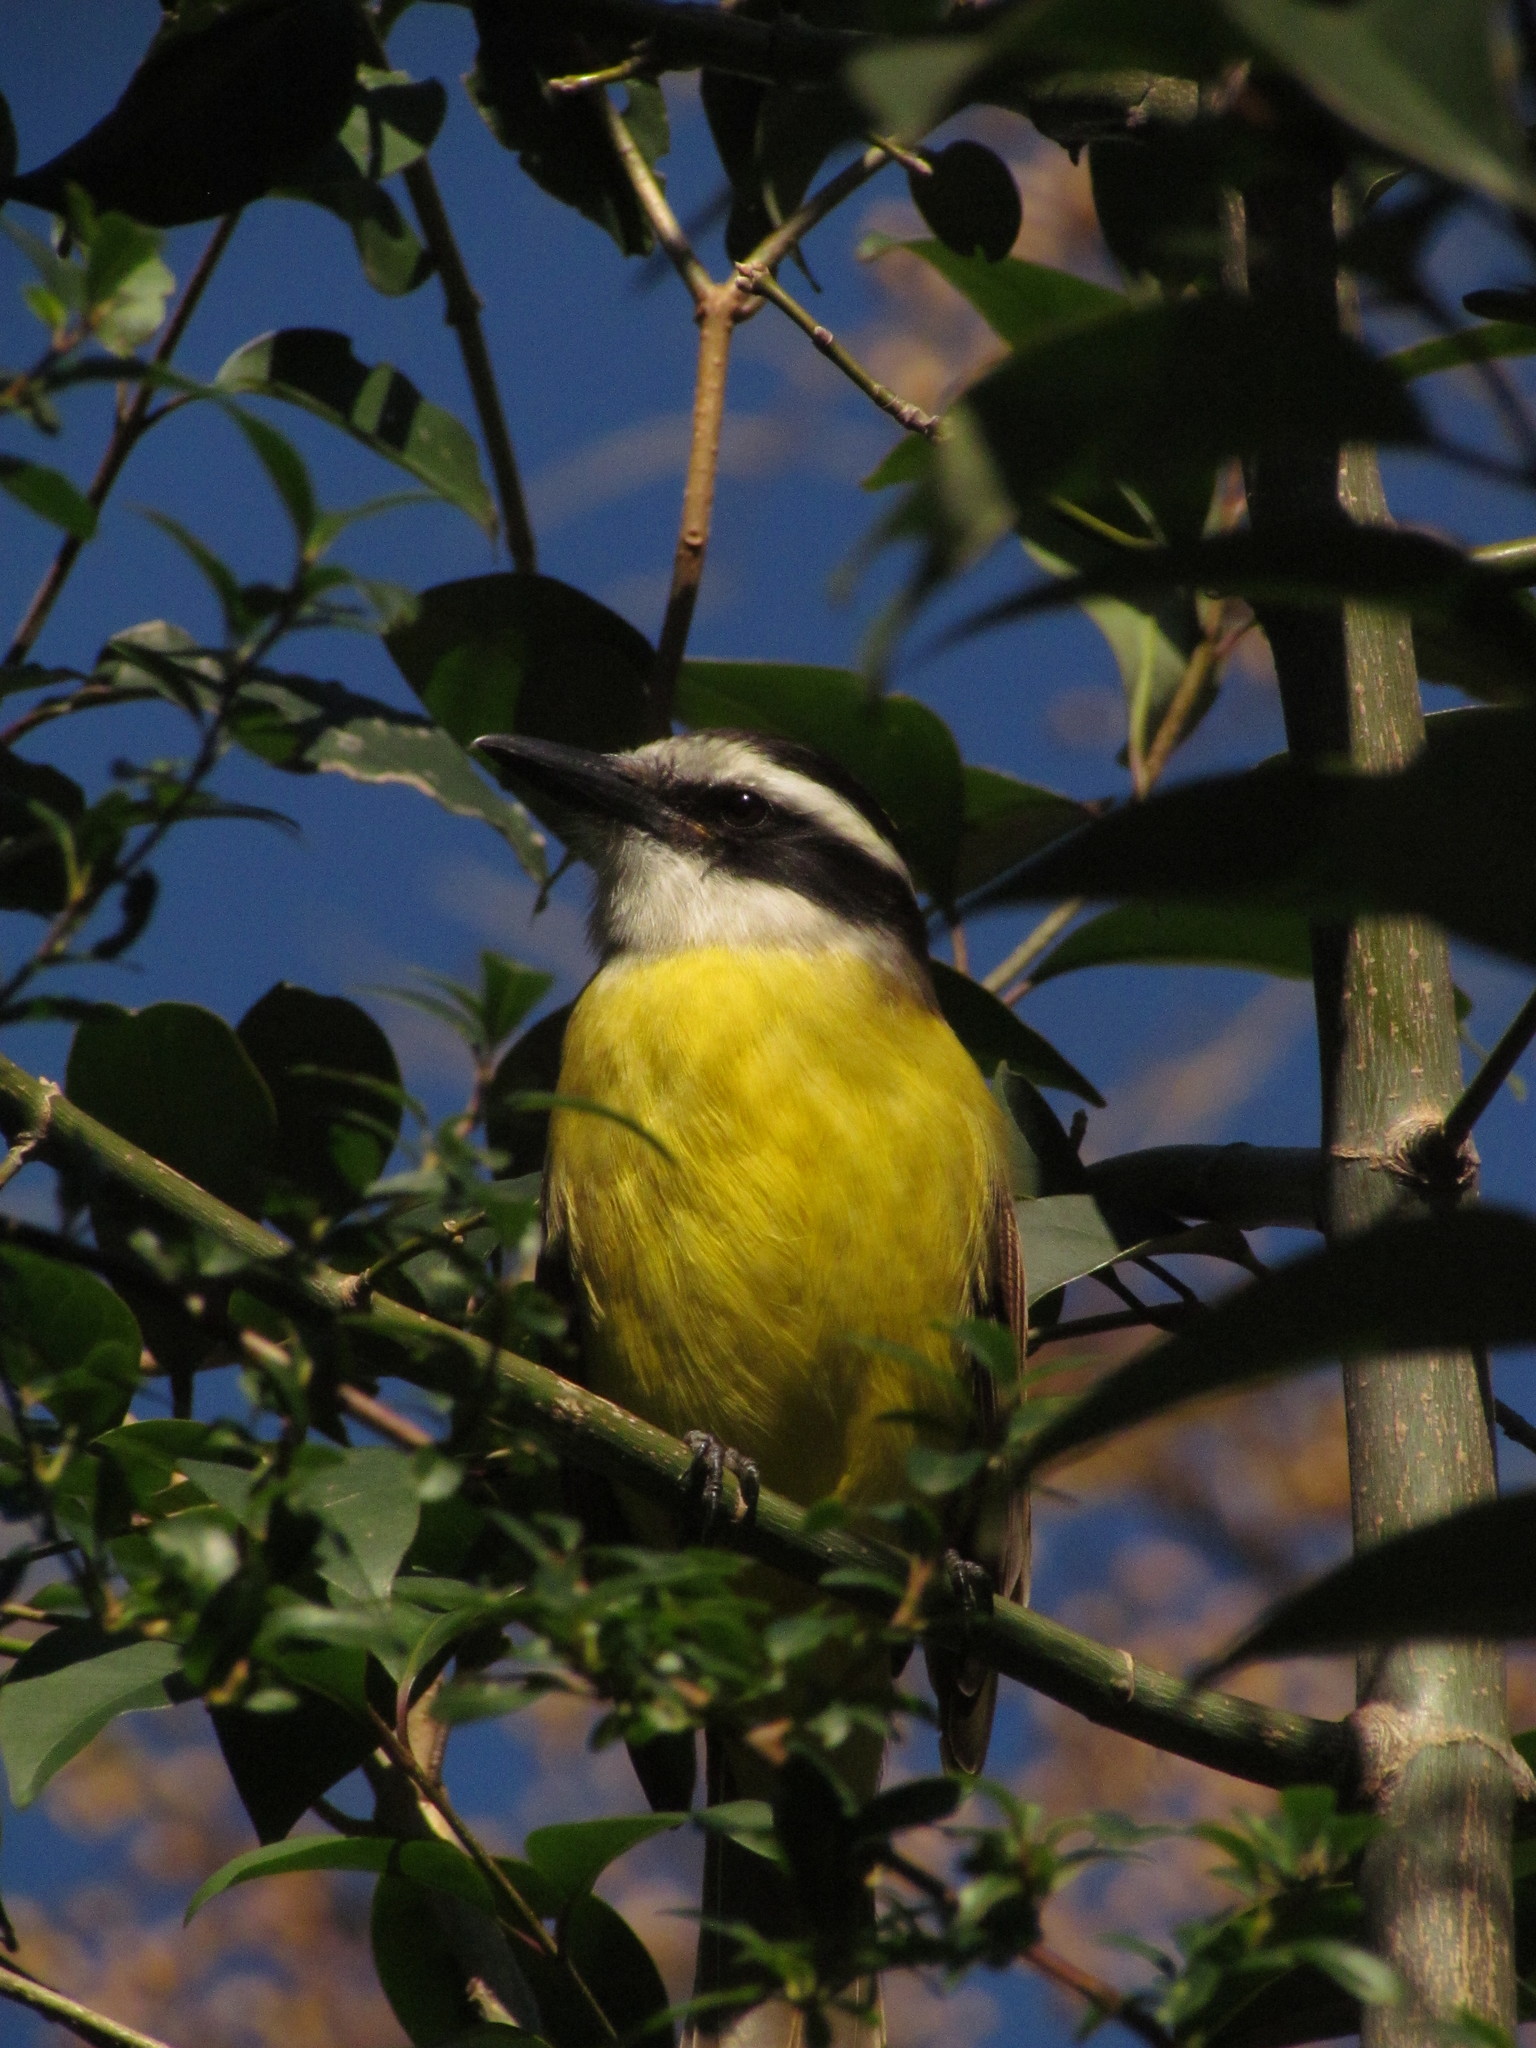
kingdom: Animalia
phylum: Chordata
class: Aves
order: Passeriformes
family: Tyrannidae
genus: Pitangus
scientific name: Pitangus sulphuratus
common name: Great kiskadee
